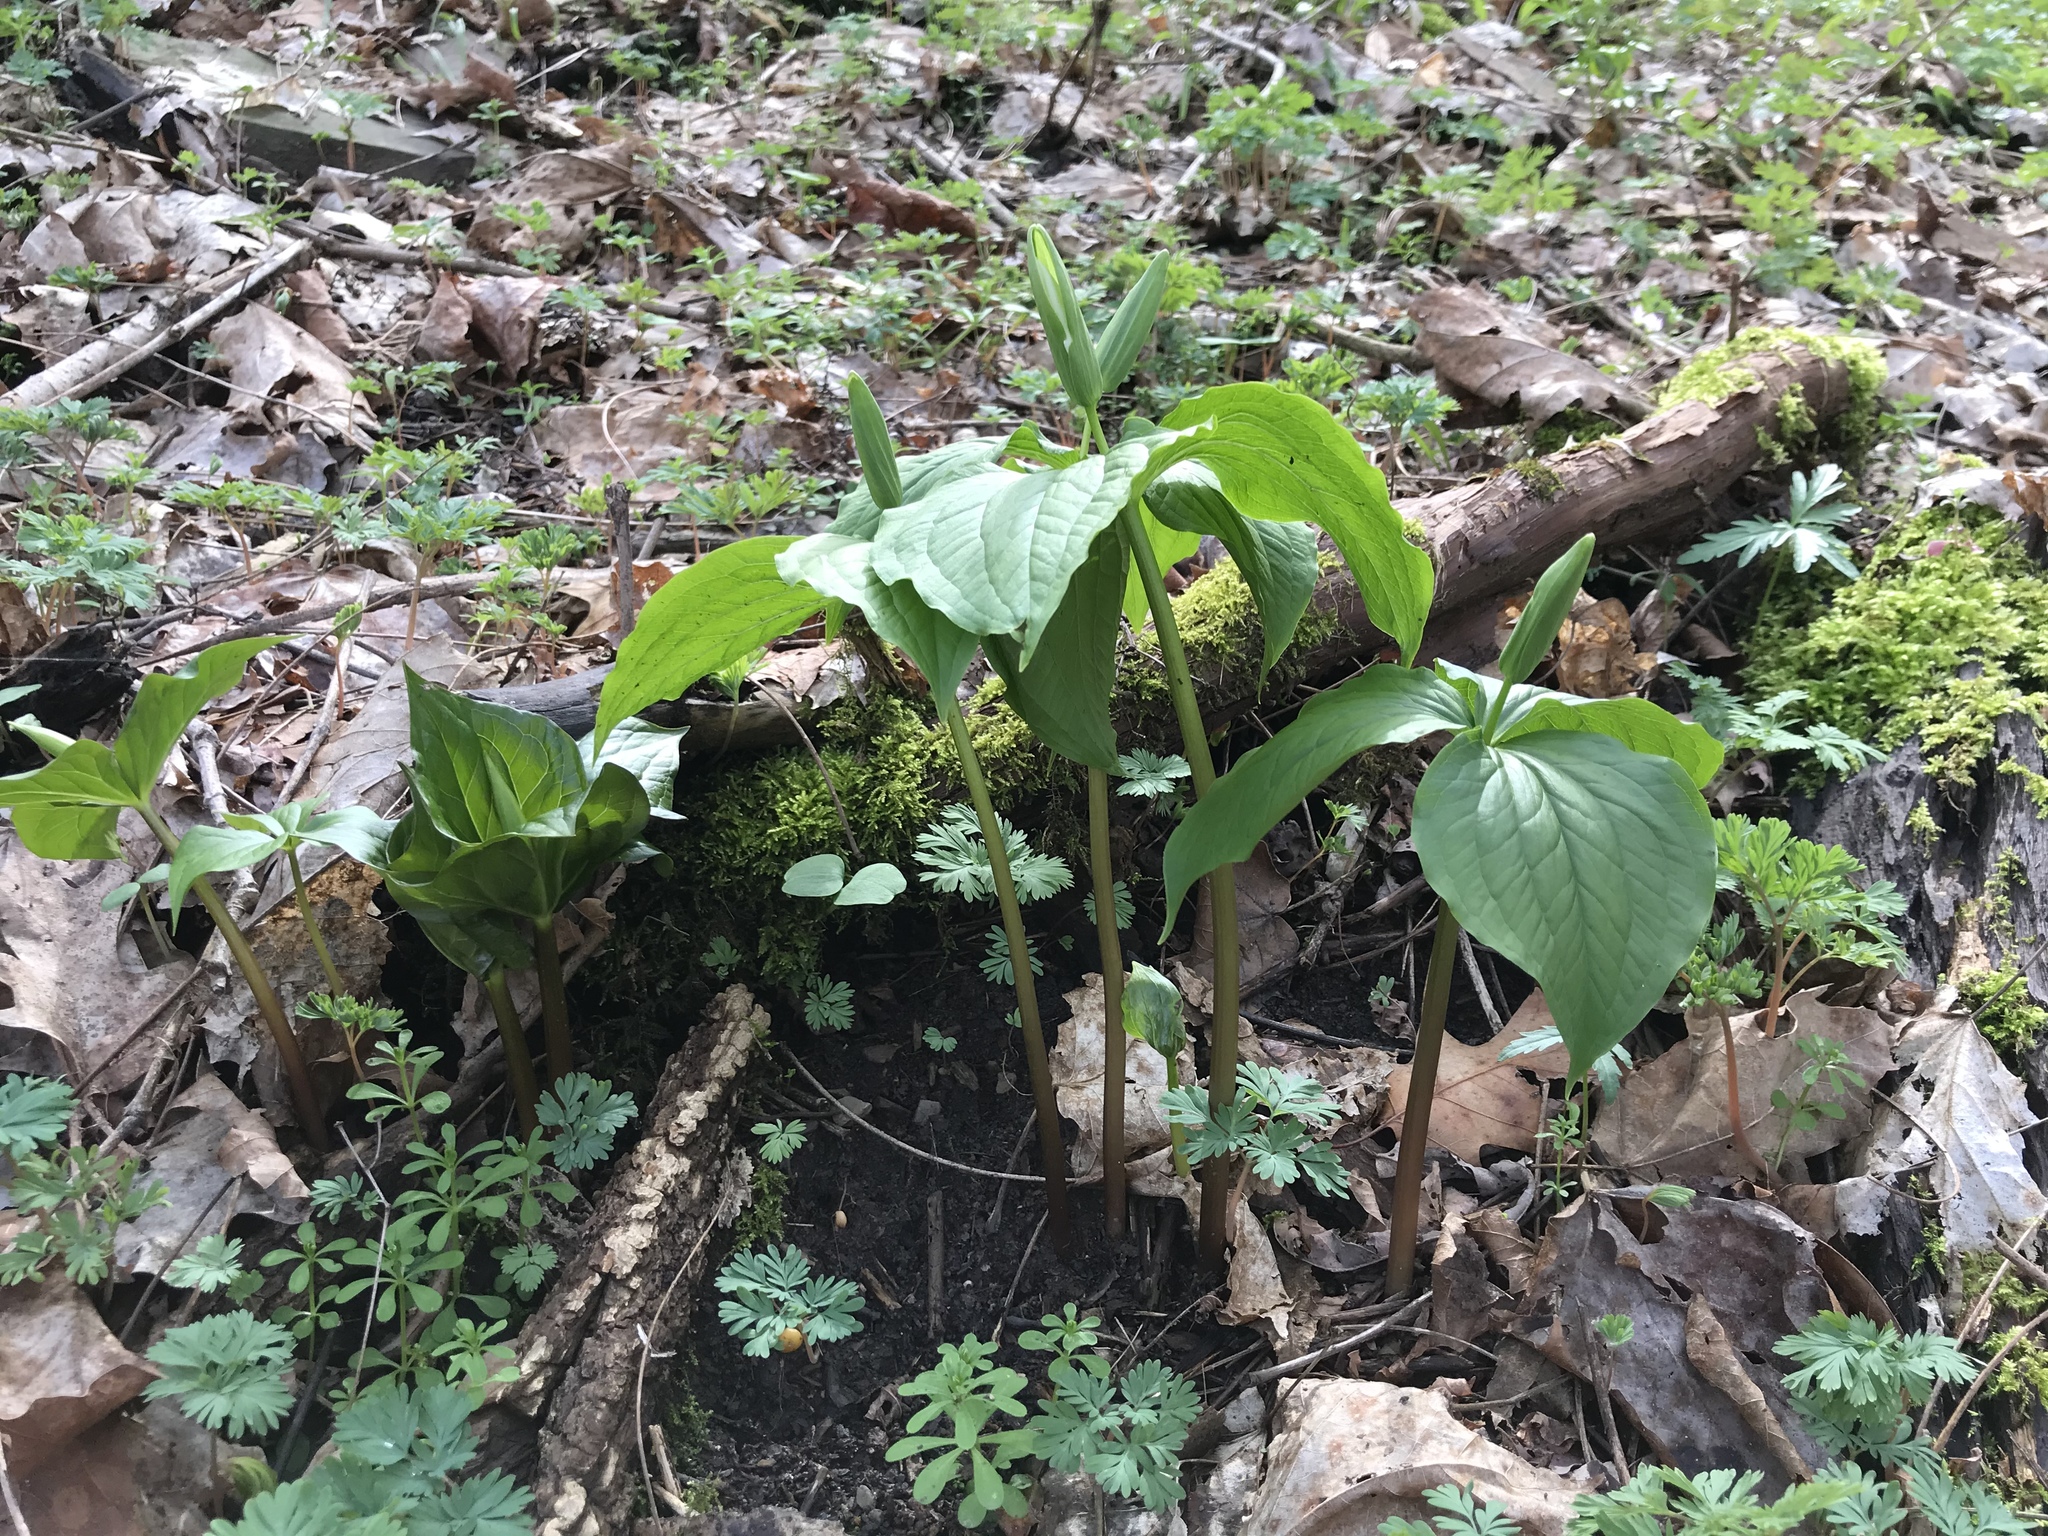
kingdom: Plantae
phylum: Tracheophyta
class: Liliopsida
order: Liliales
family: Melanthiaceae
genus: Trillium
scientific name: Trillium grandiflorum
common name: Great white trillium
